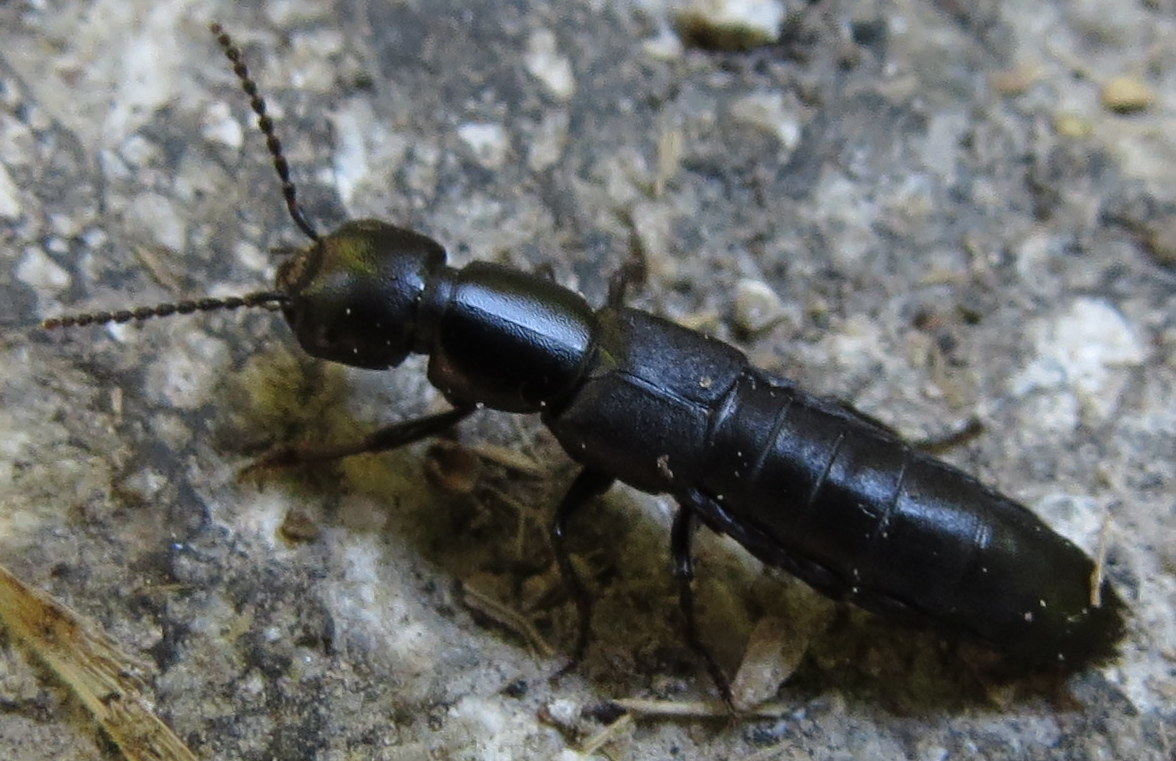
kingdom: Animalia
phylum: Arthropoda
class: Insecta
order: Coleoptera
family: Staphylinidae
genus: Ocypus
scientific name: Ocypus nitens
